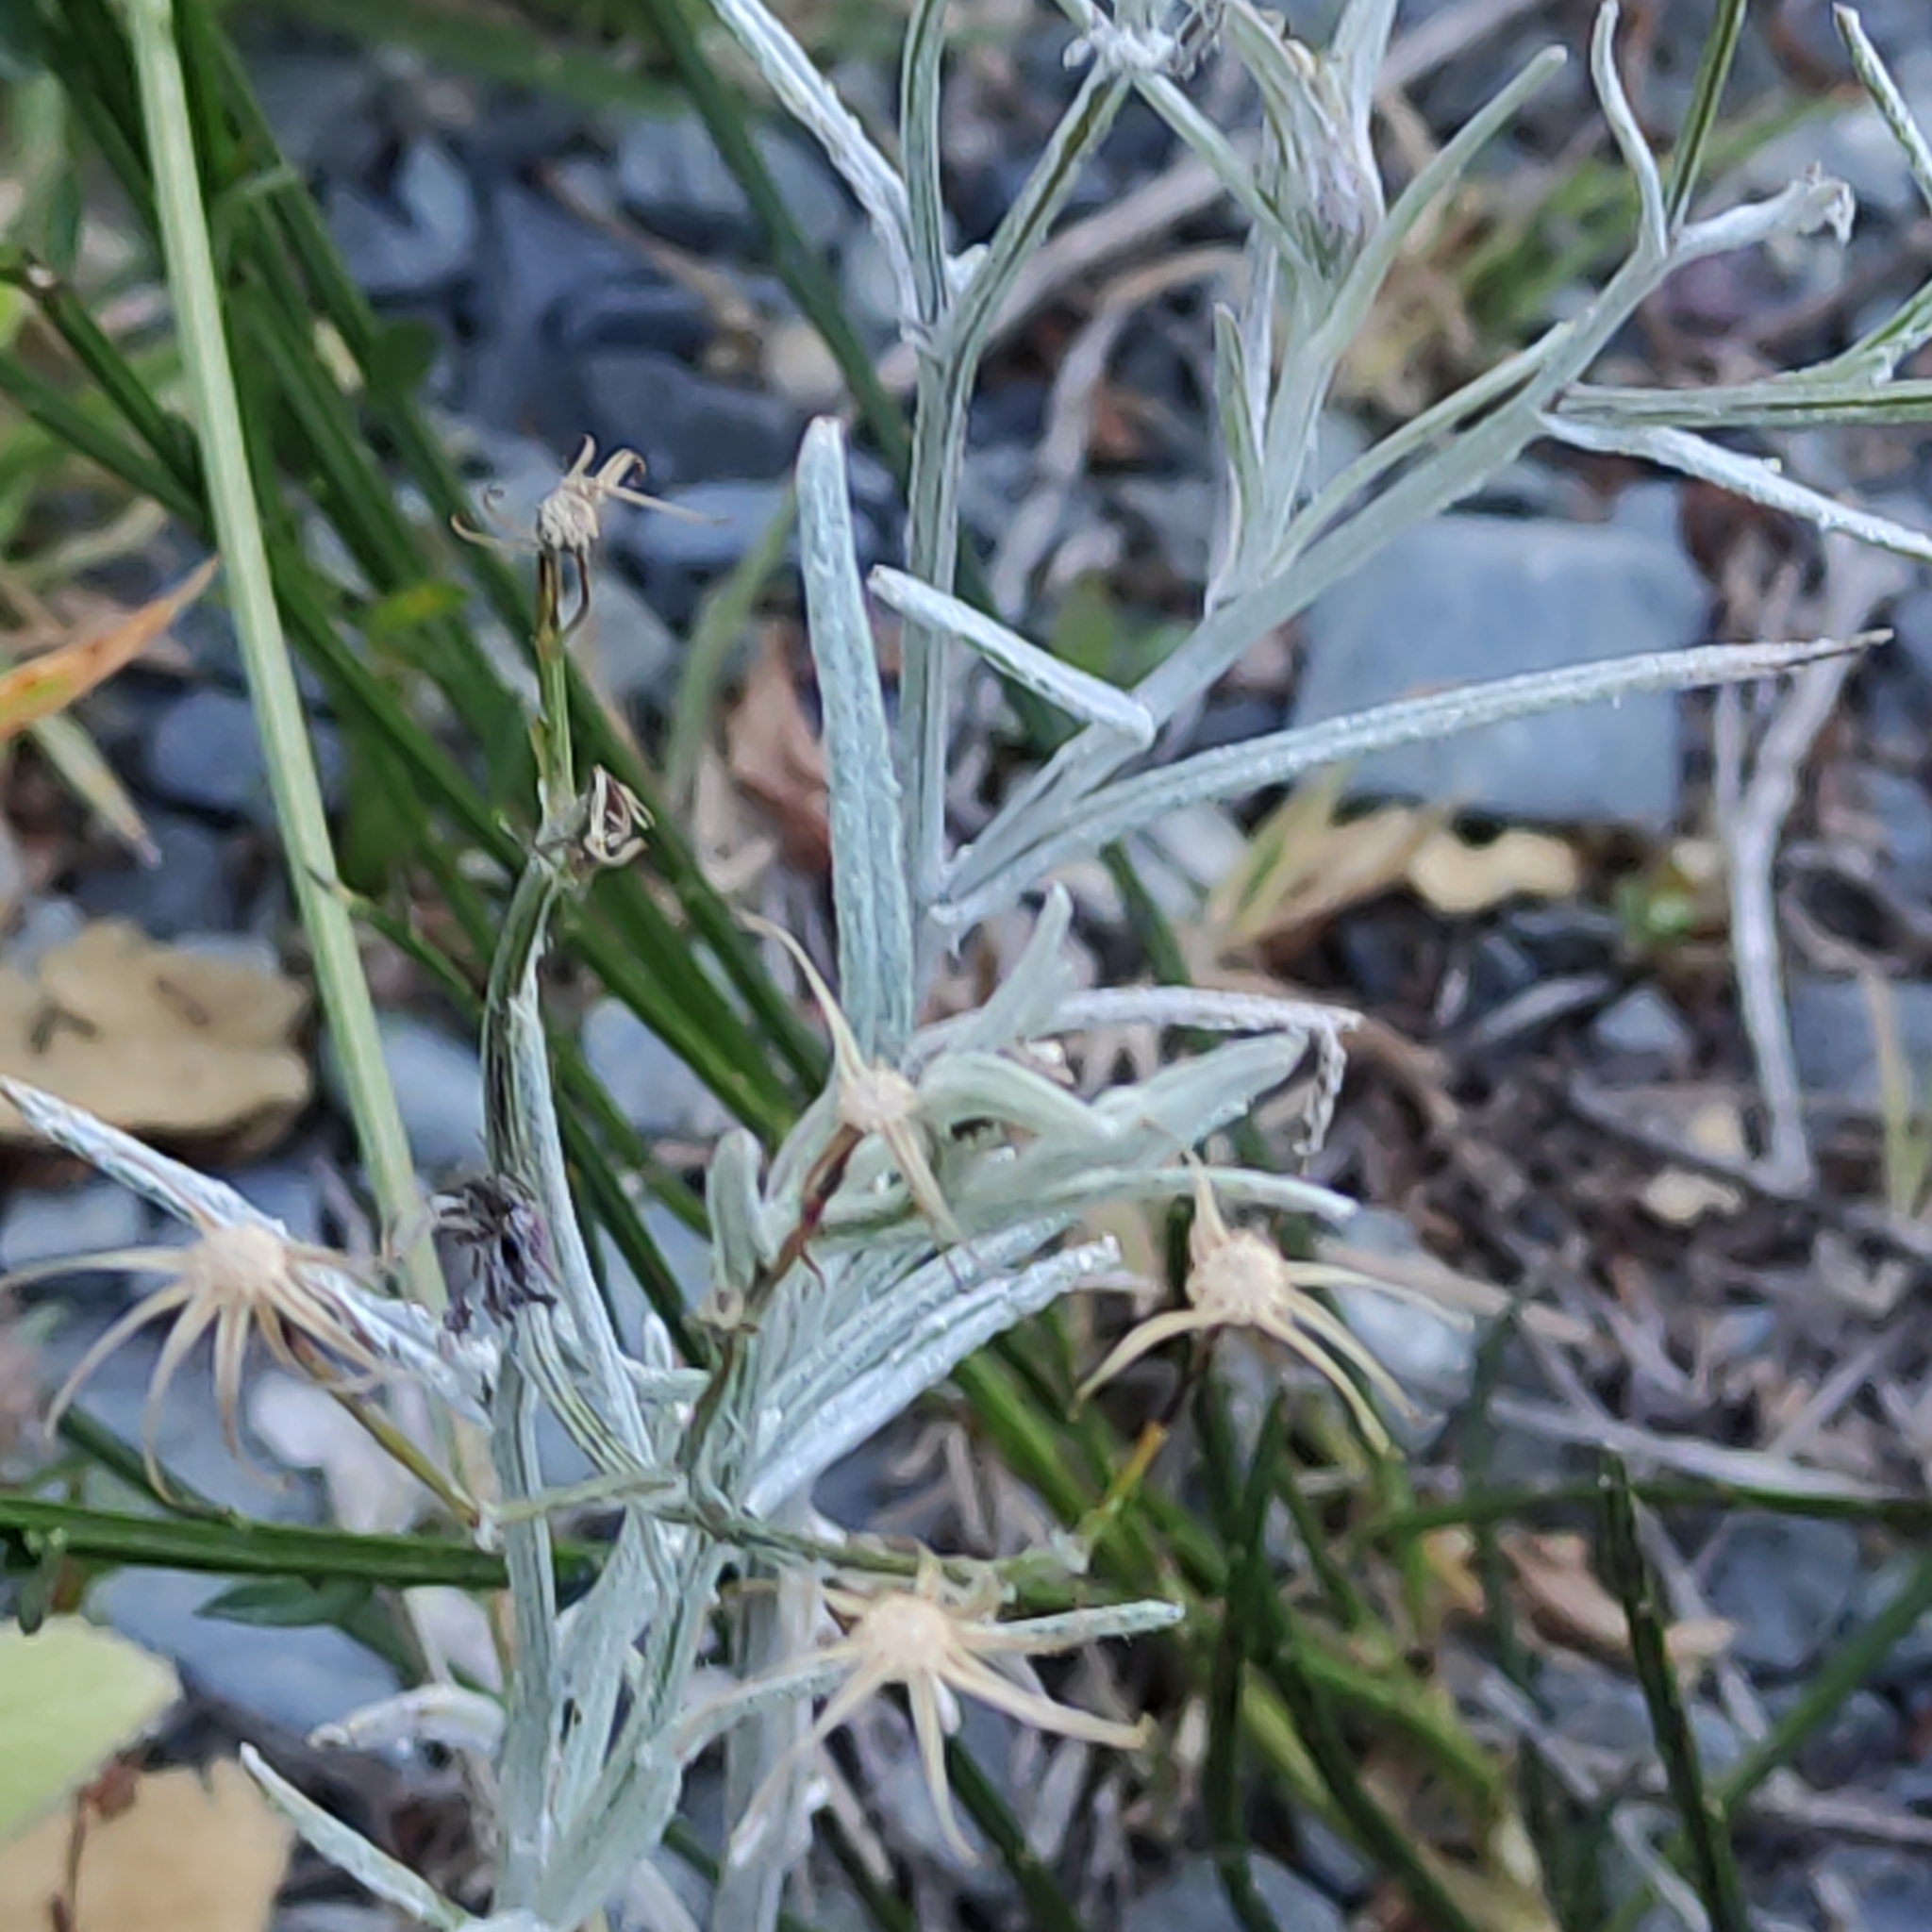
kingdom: Plantae
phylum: Tracheophyta
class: Magnoliopsida
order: Asterales
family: Asteraceae
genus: Senecio
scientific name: Senecio quadridentatus
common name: Cotton fireweed
